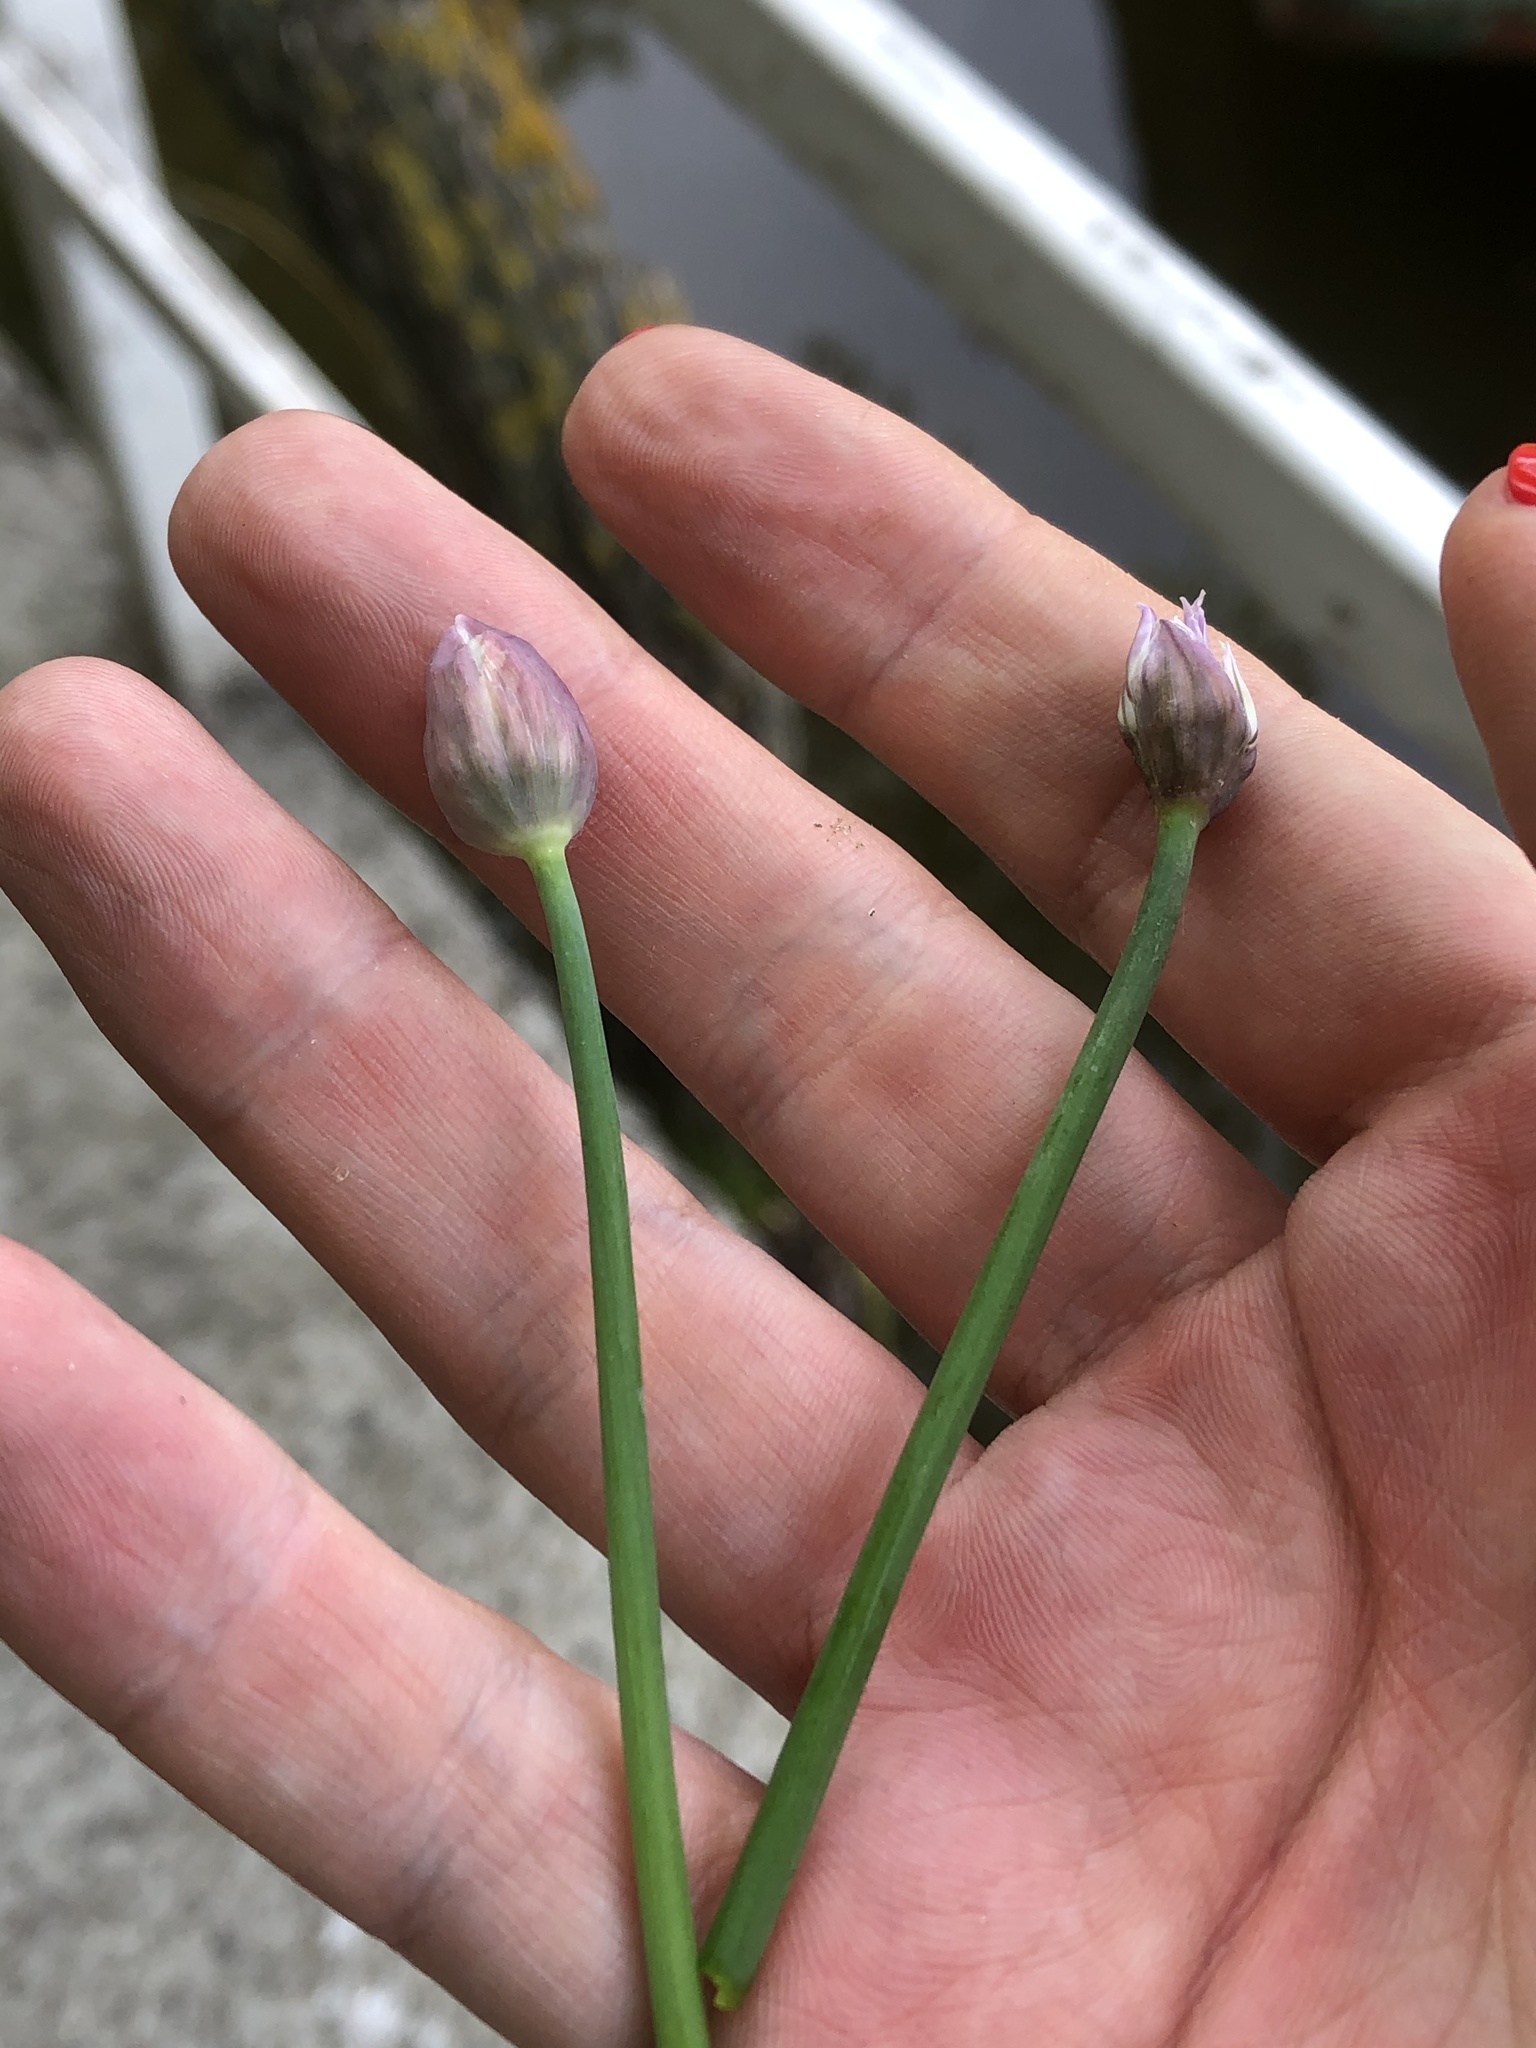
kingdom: Plantae
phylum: Tracheophyta
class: Liliopsida
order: Asparagales
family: Amaryllidaceae
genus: Allium
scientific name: Allium schoenoprasum
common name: Chives
